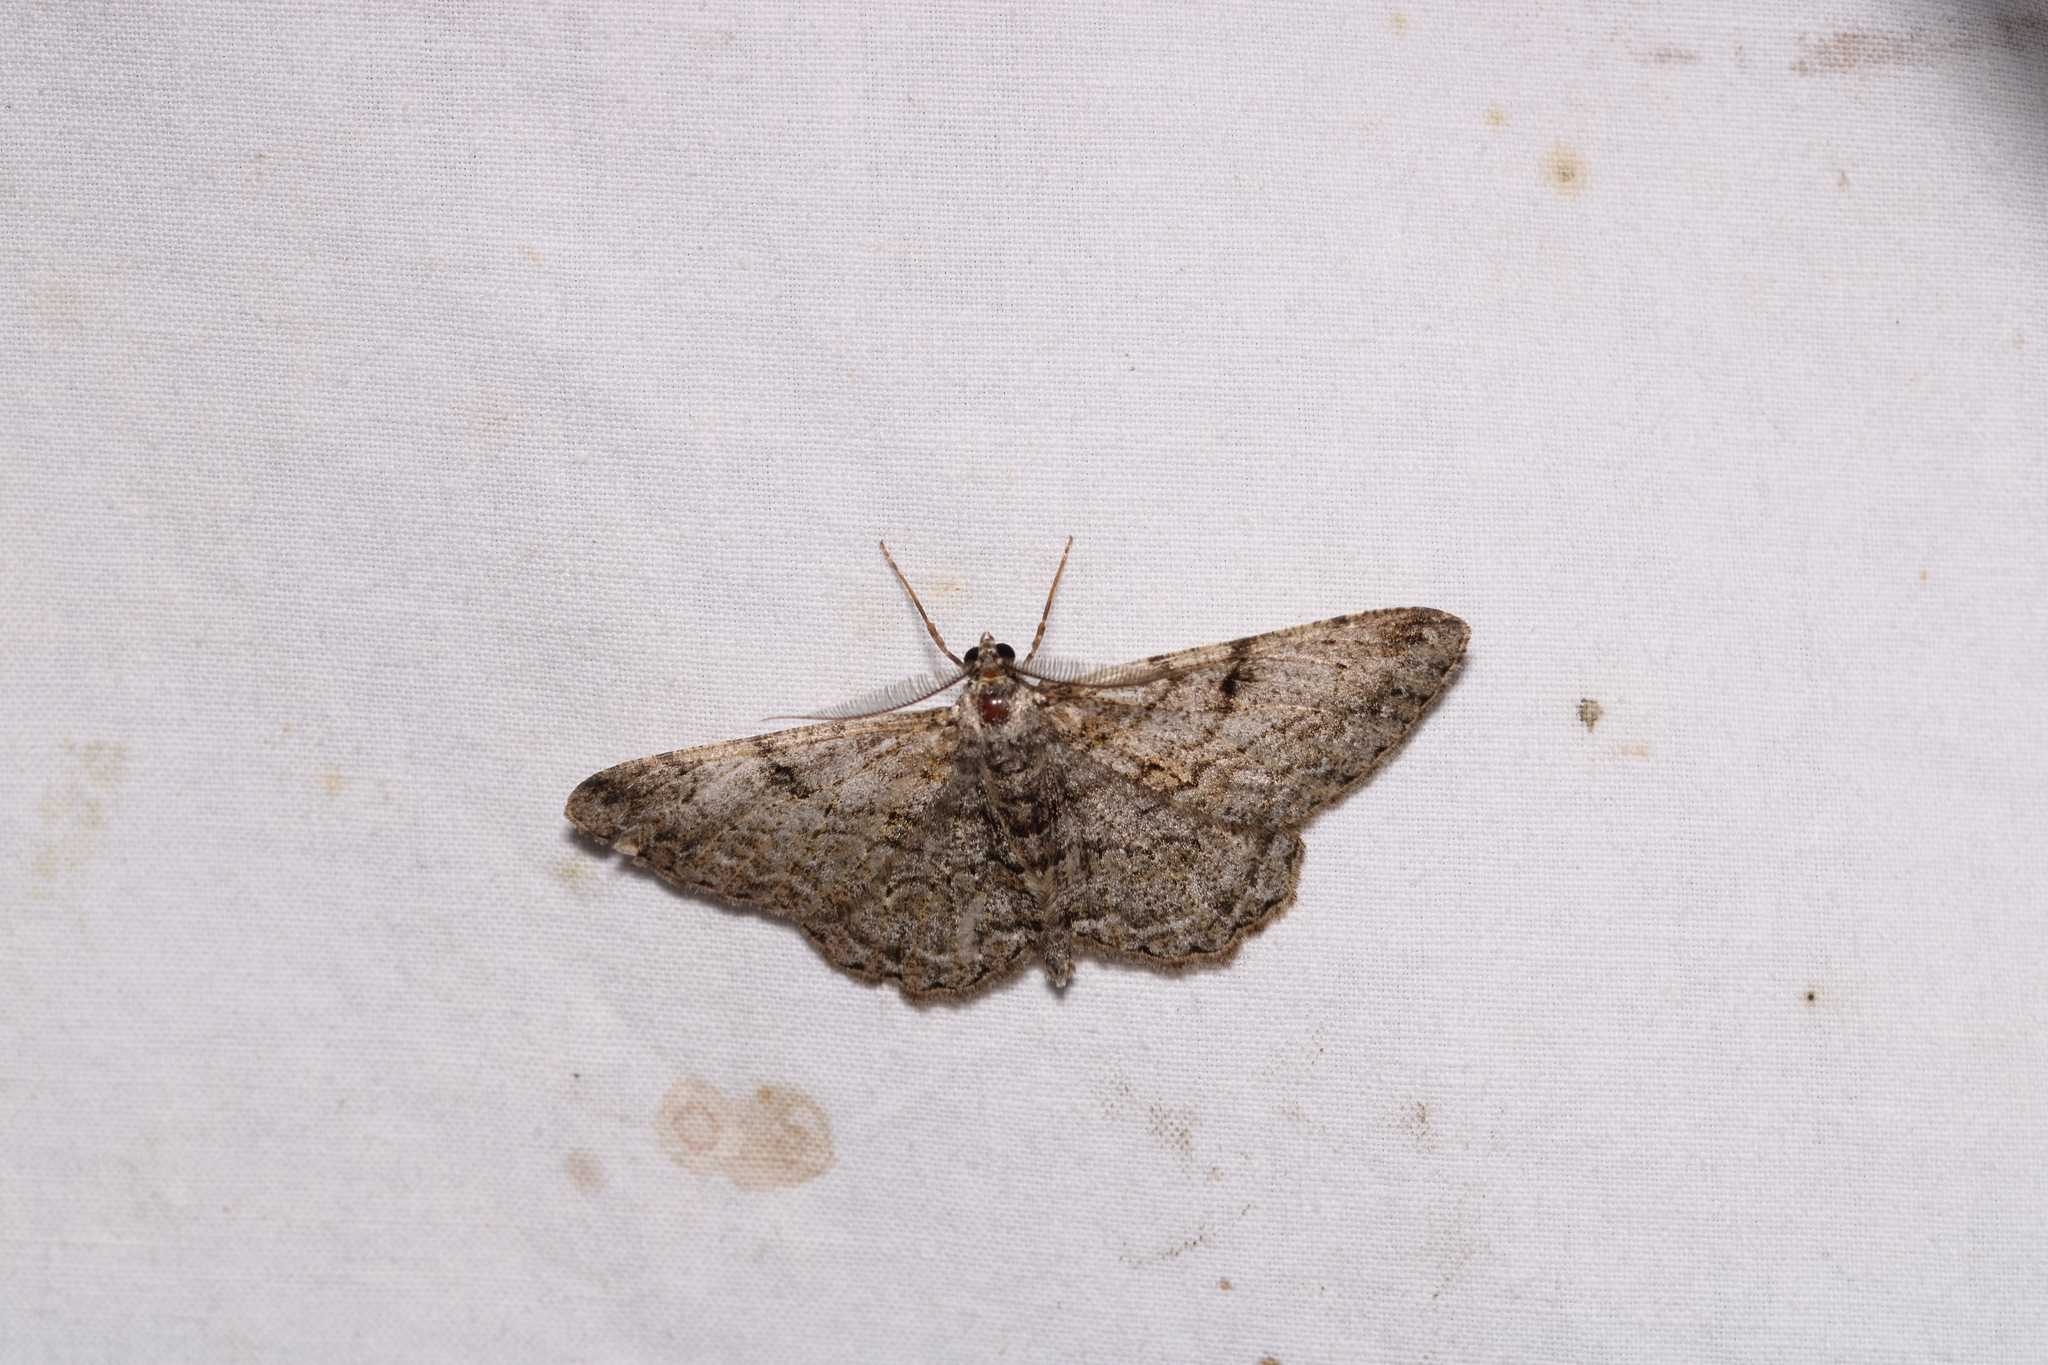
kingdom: Animalia
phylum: Arthropoda
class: Insecta
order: Lepidoptera
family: Geometridae
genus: Peribatodes
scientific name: Peribatodes rhomboidaria
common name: Willow beauty
